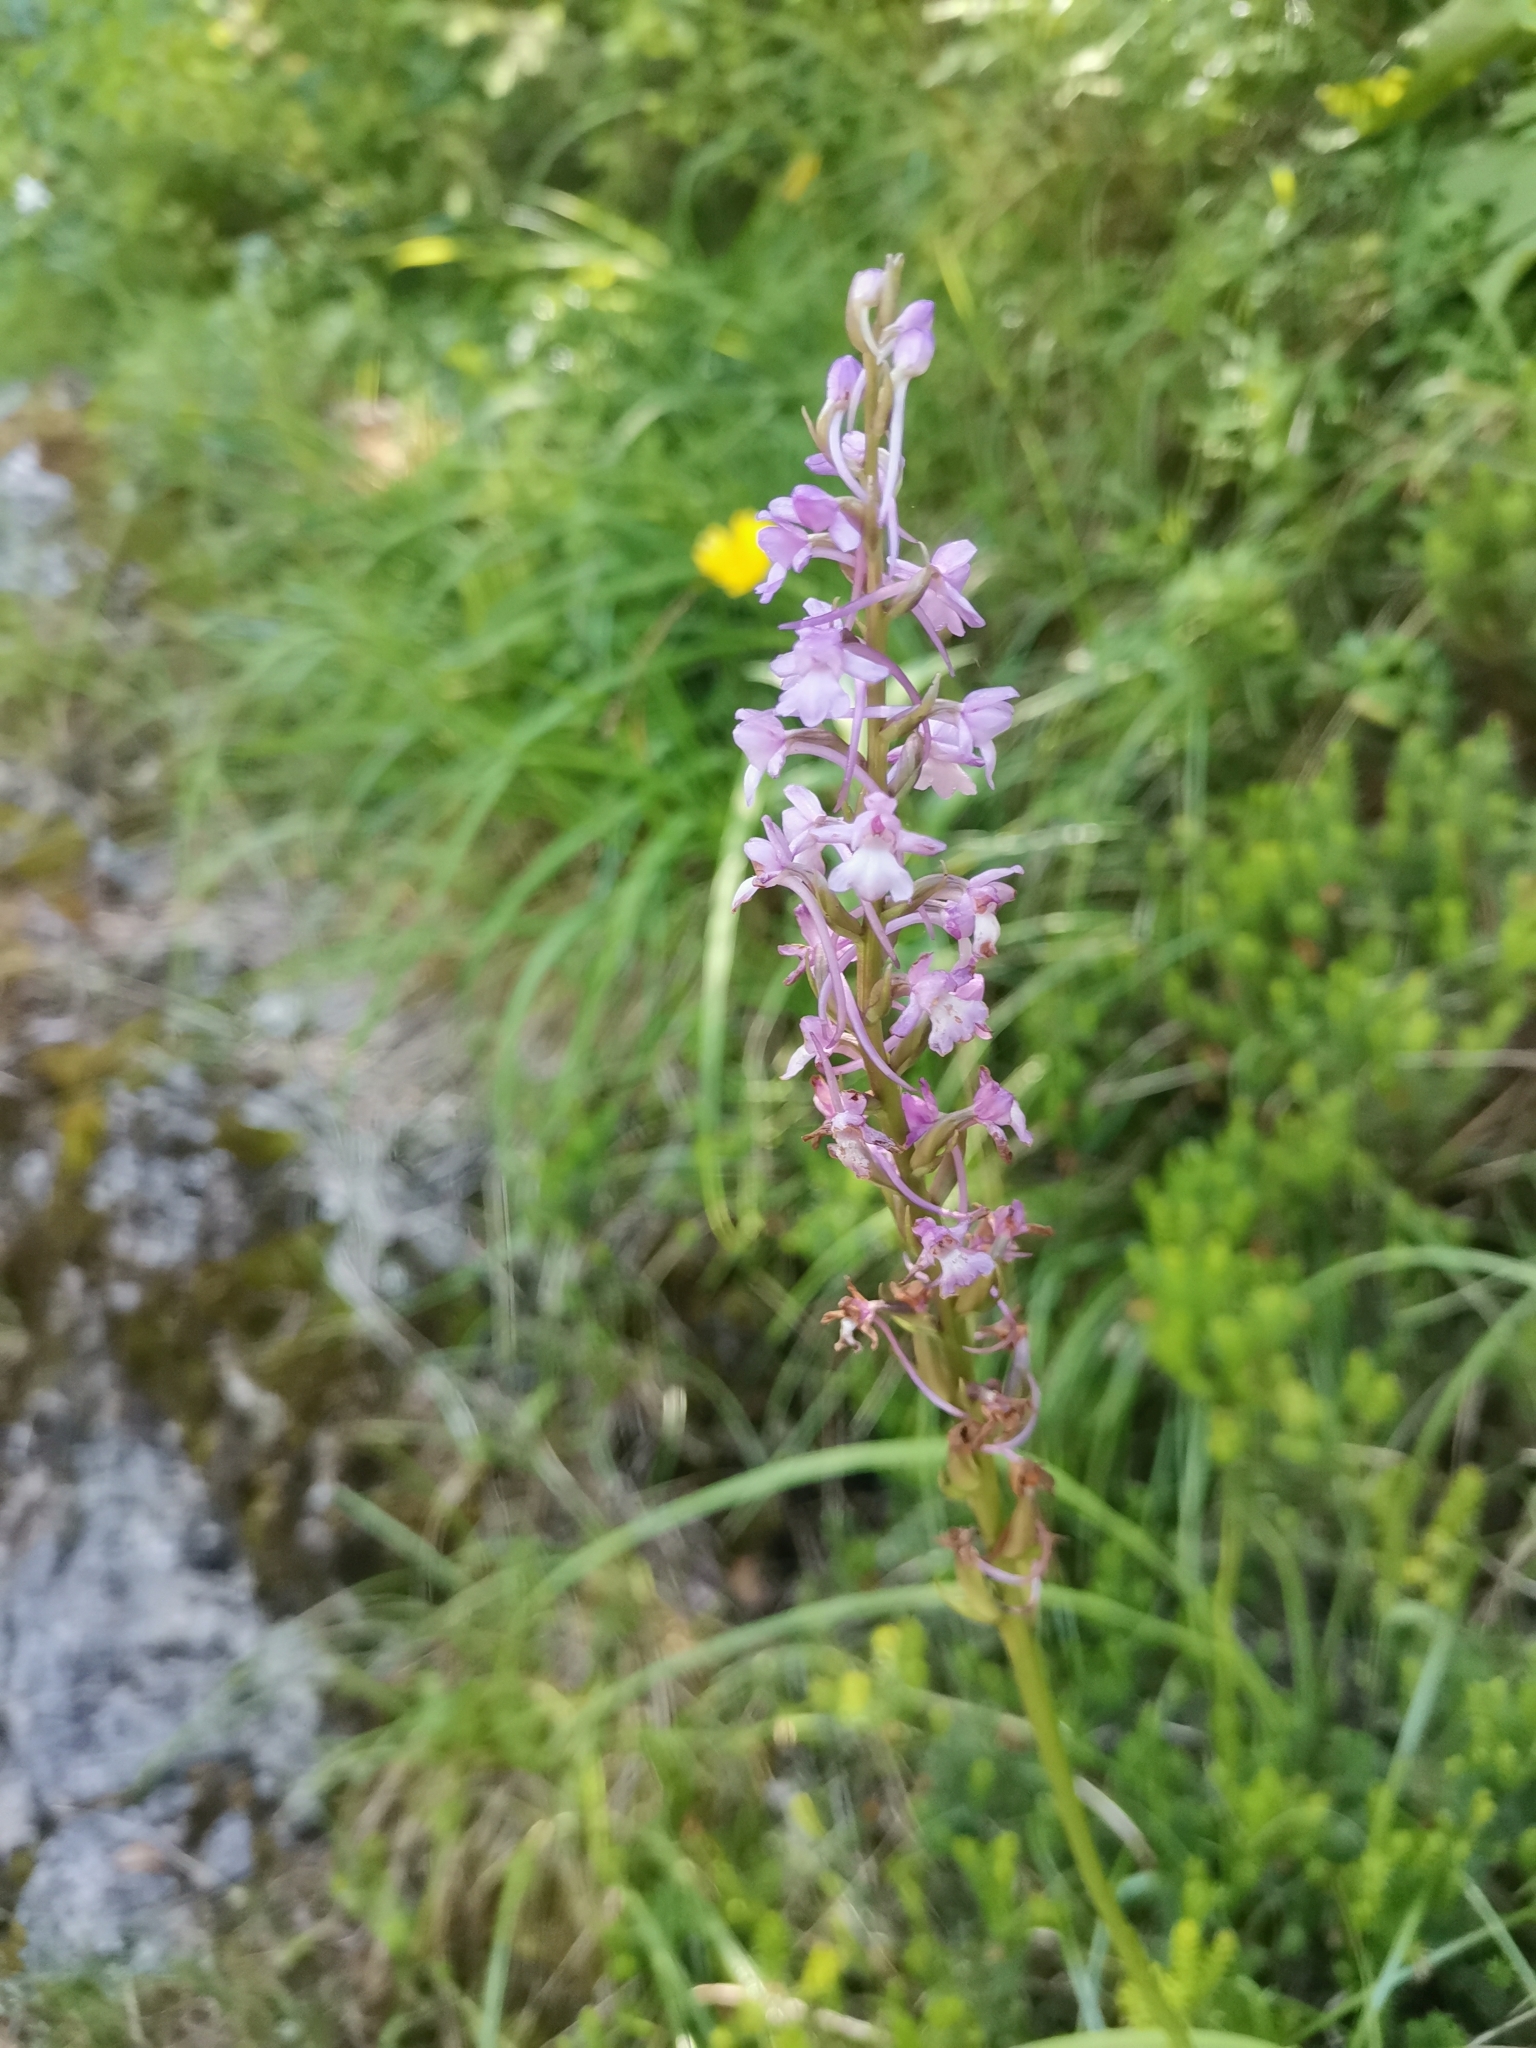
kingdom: Plantae
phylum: Tracheophyta
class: Liliopsida
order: Asparagales
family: Orchidaceae
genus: Gymnadenia
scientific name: Gymnadenia conopsea
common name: Fragrant orchid
